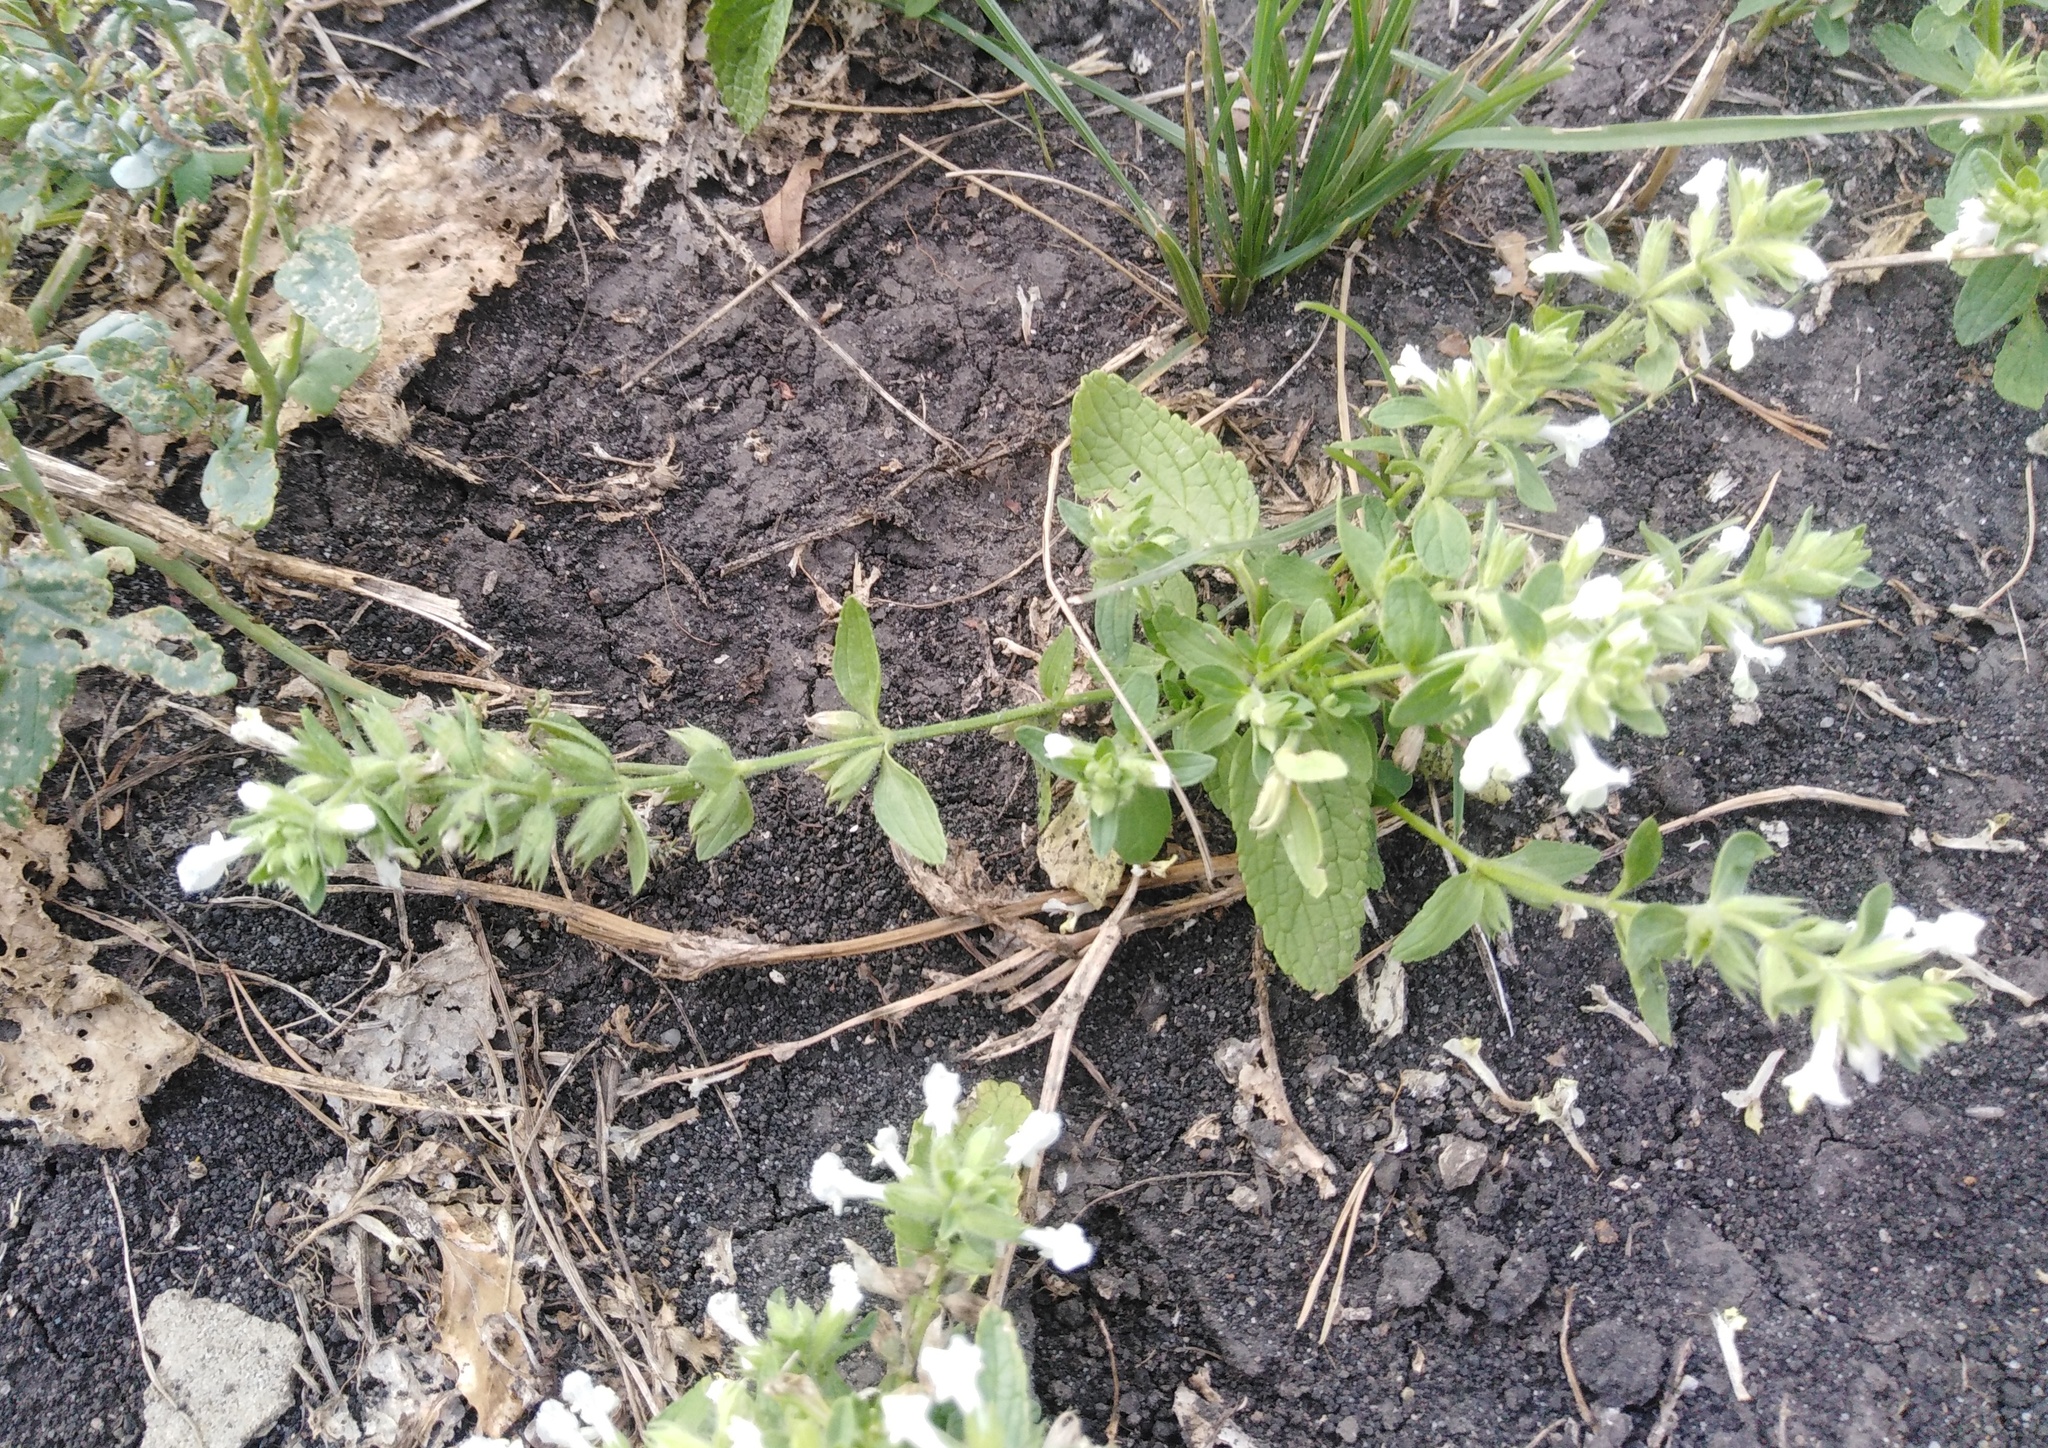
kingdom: Plantae
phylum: Tracheophyta
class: Magnoliopsida
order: Lamiales
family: Lamiaceae
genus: Stachys
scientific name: Stachys annua
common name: Annual yellow-woundwort
